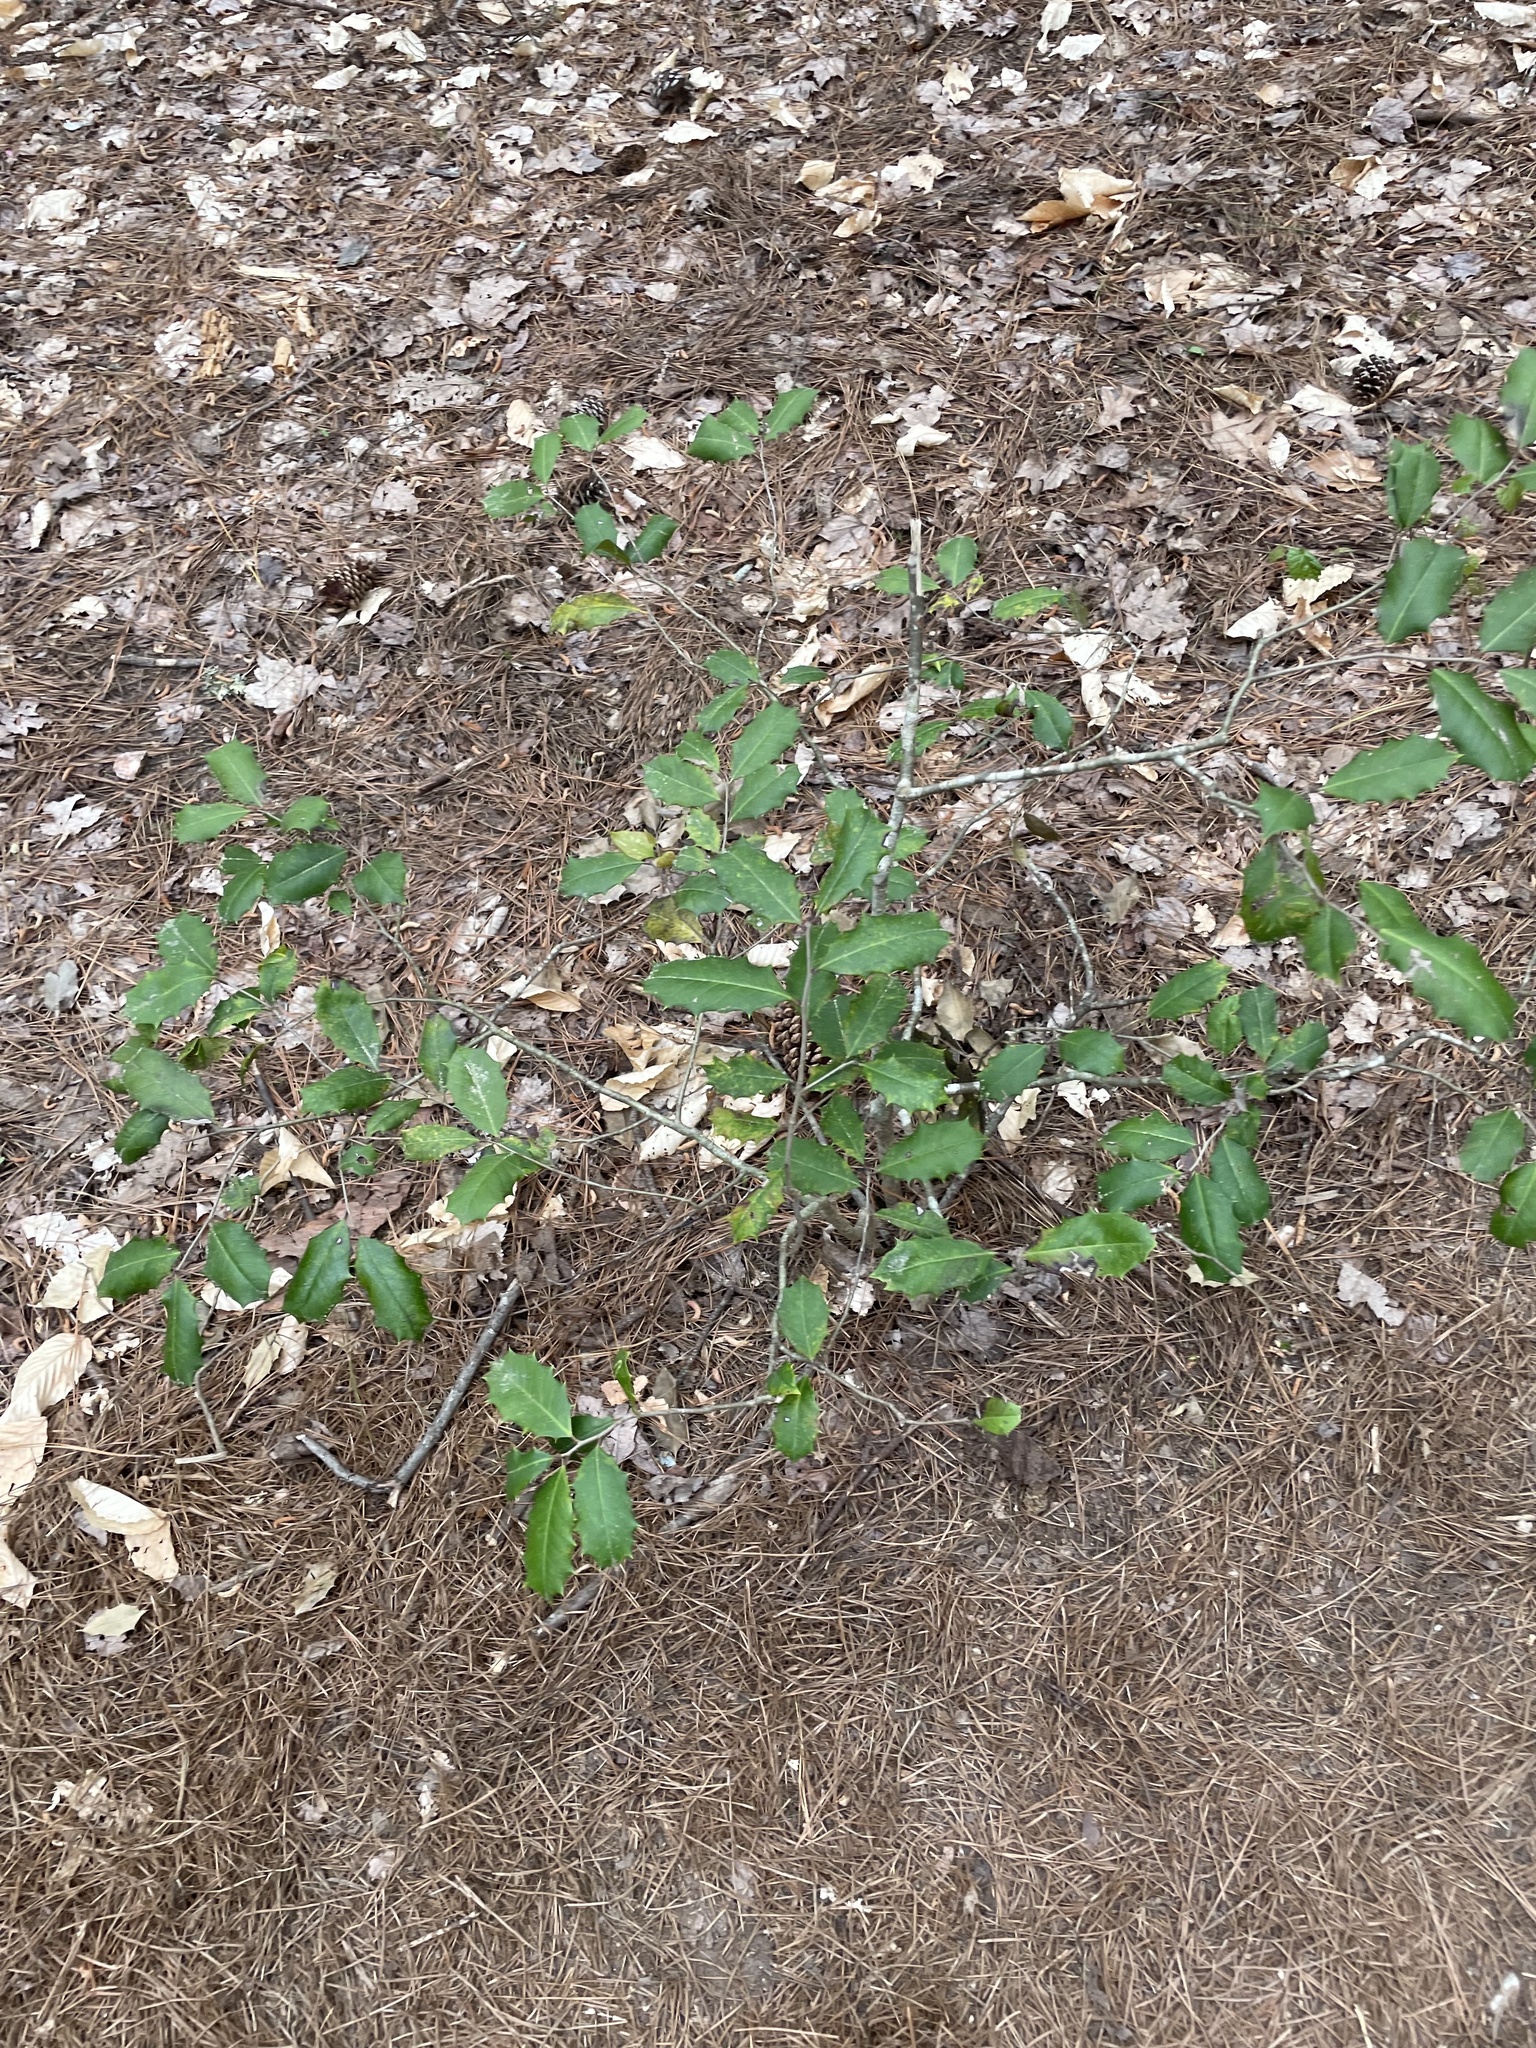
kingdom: Plantae
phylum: Tracheophyta
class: Magnoliopsida
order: Aquifoliales
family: Aquifoliaceae
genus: Ilex
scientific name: Ilex opaca
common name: American holly
